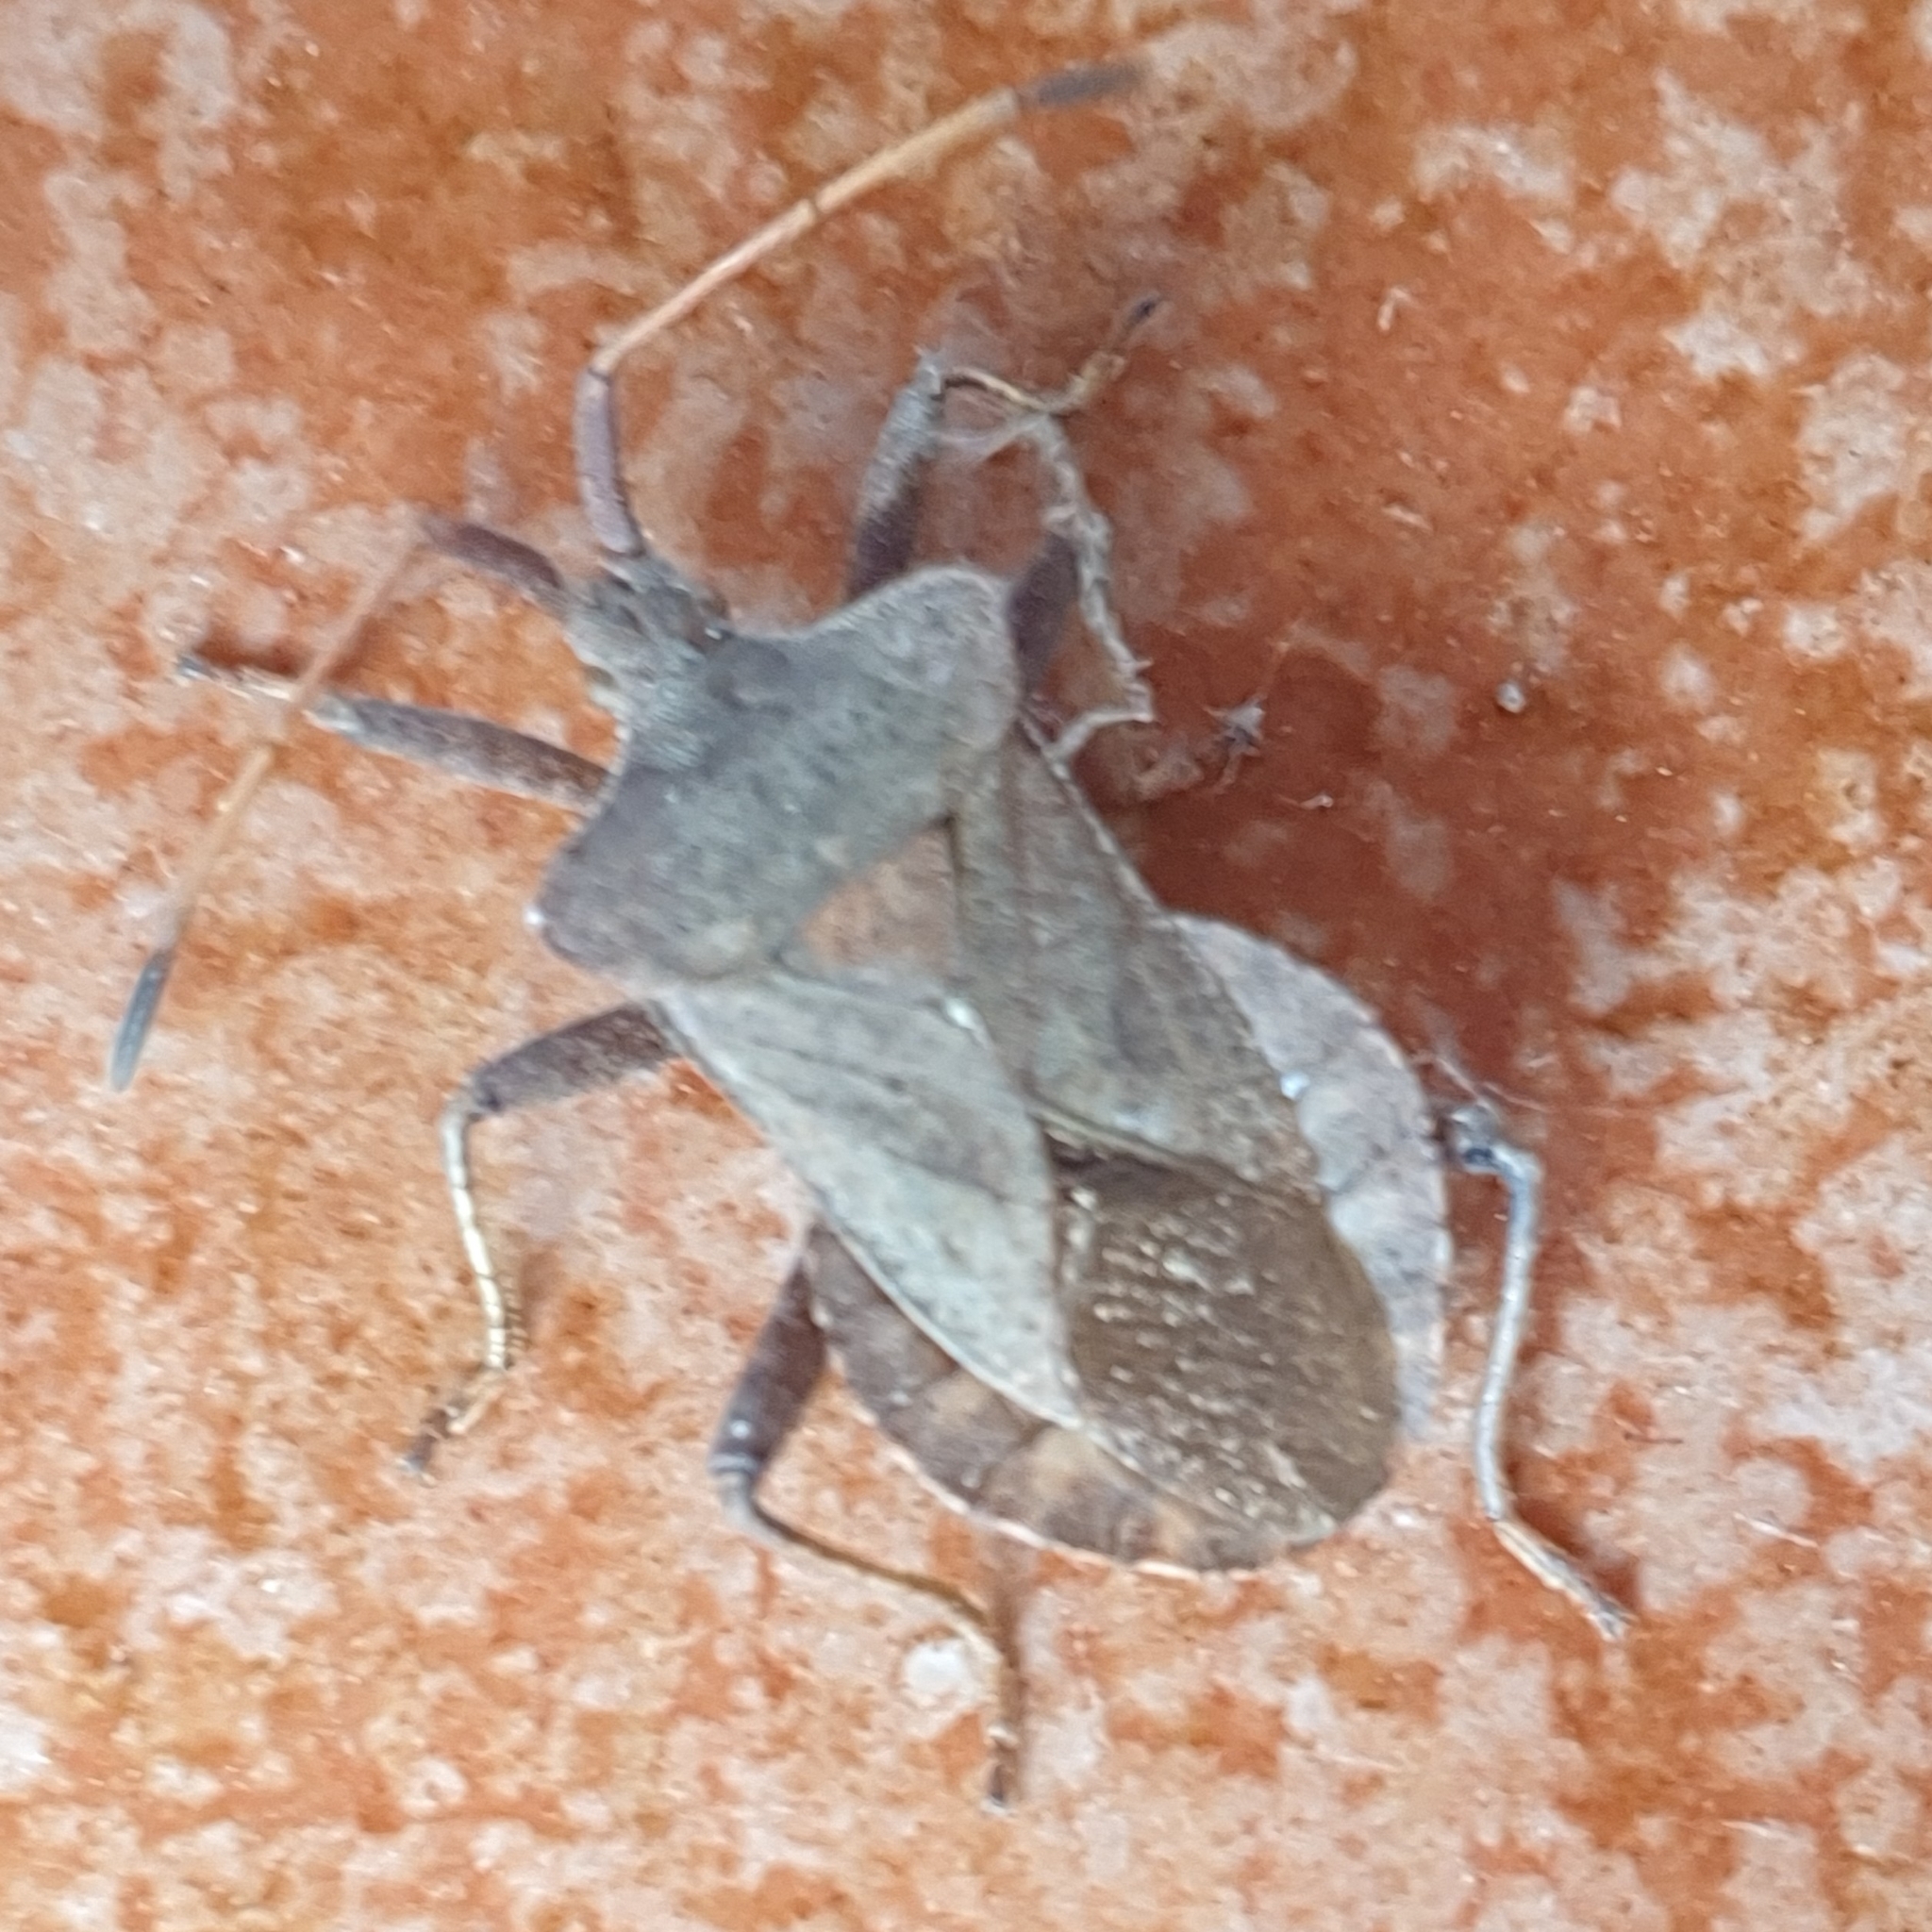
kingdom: Animalia
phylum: Arthropoda
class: Insecta
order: Hemiptera
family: Coreidae
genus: Coreus
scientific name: Coreus marginatus
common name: Dock bug
